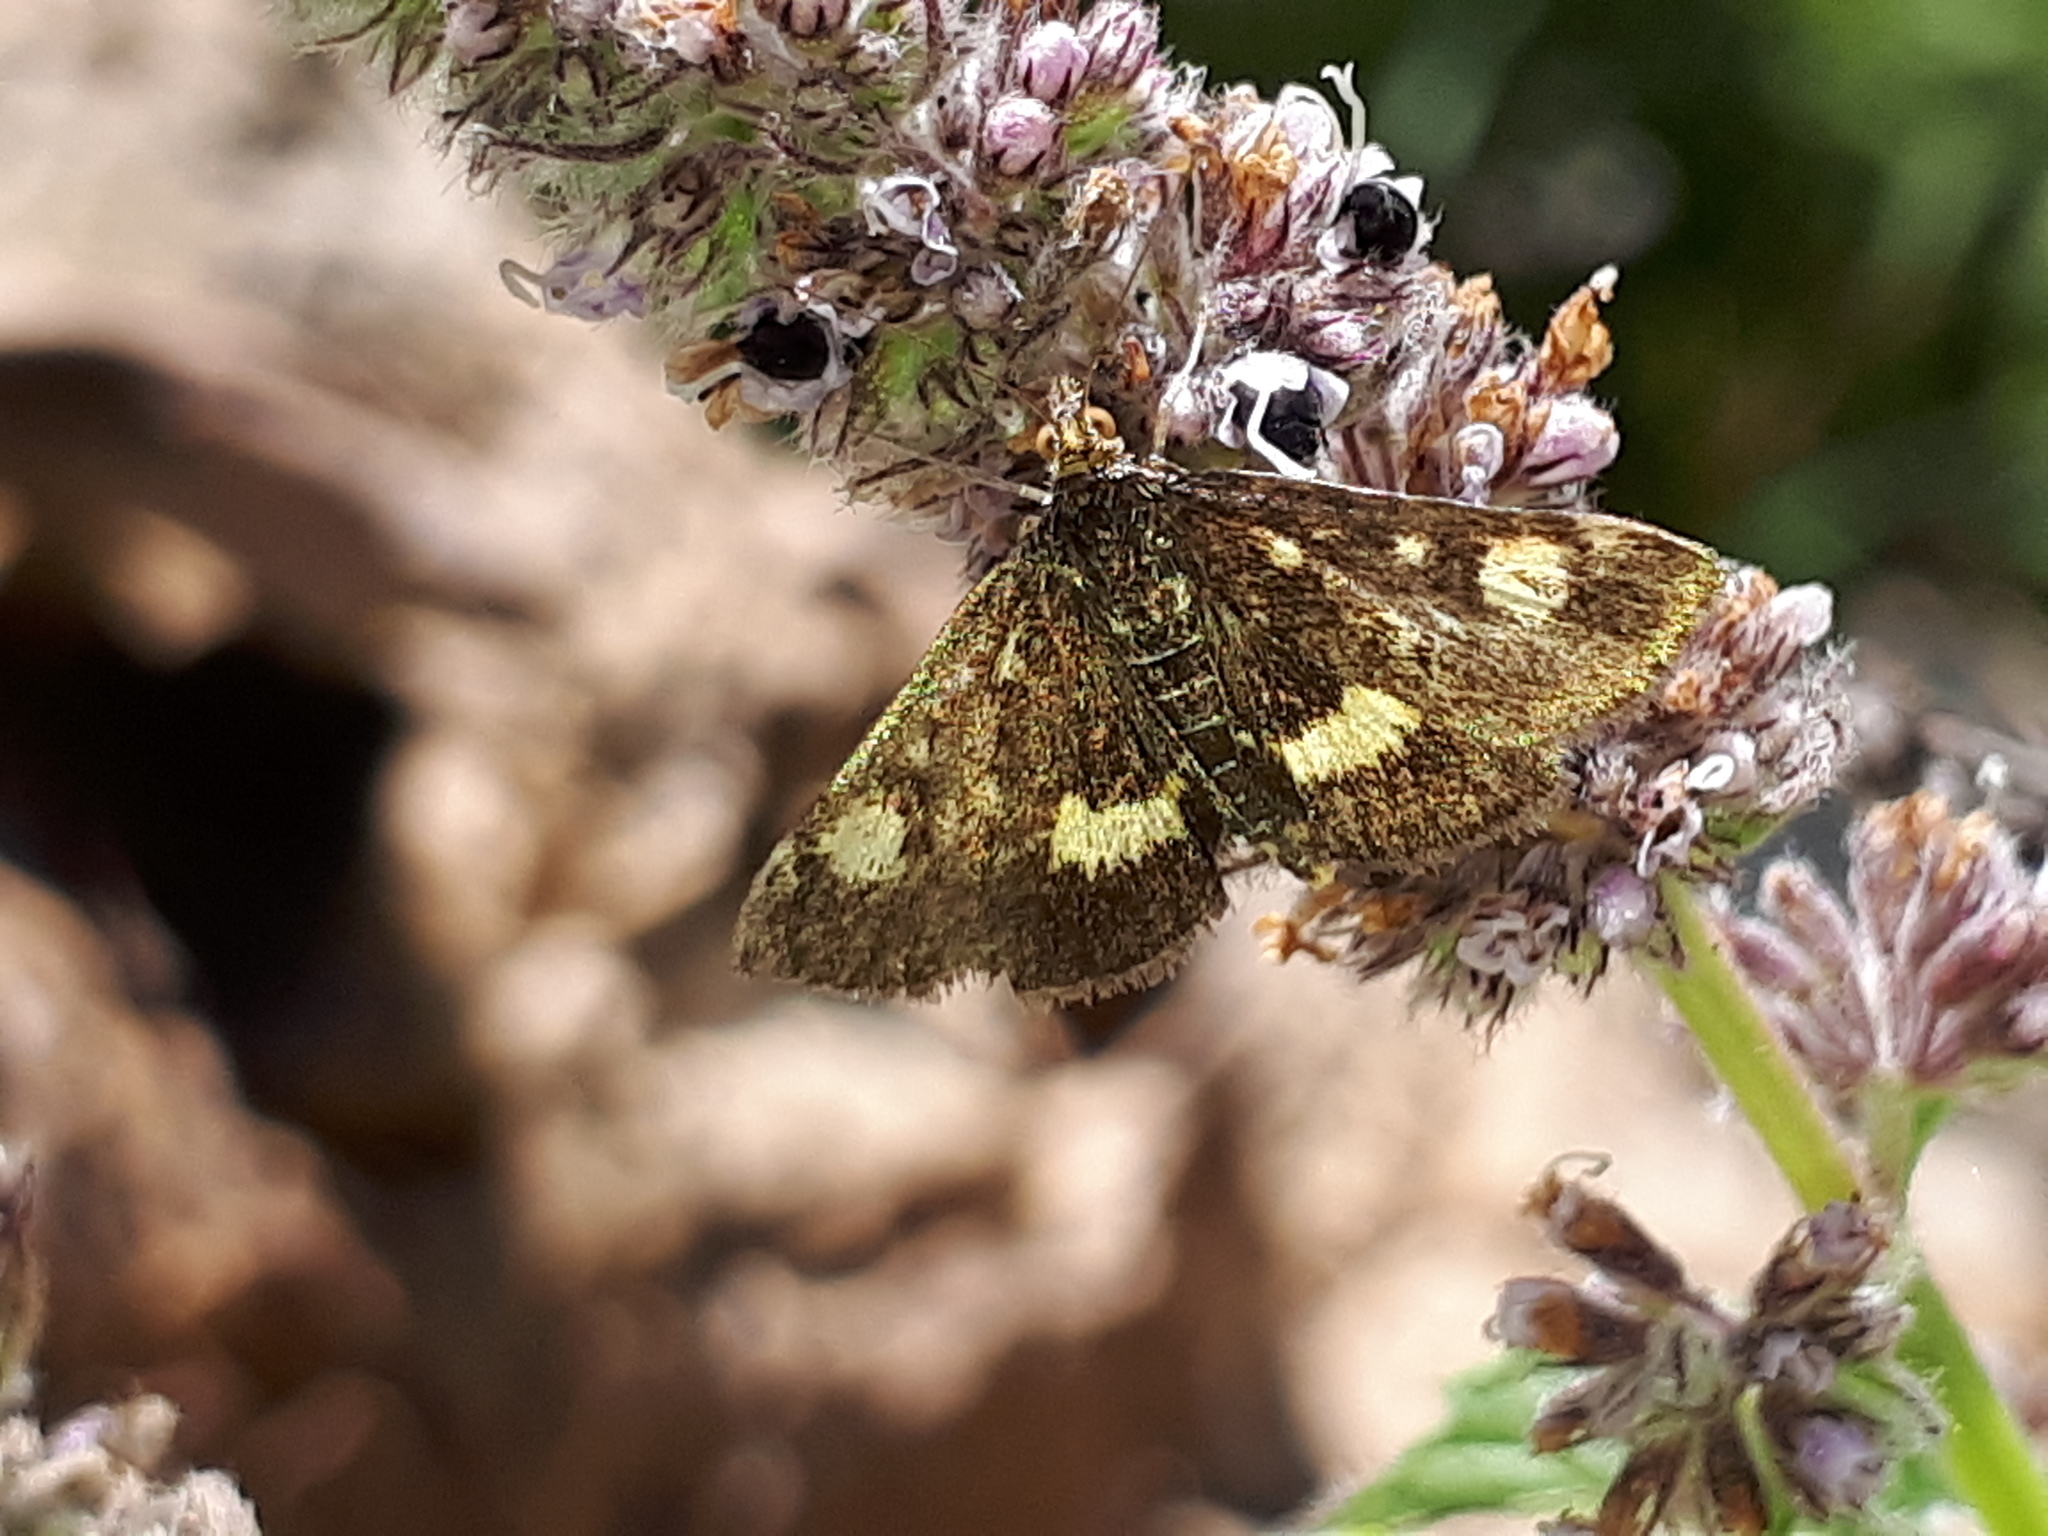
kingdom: Animalia
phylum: Arthropoda
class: Insecta
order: Lepidoptera
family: Crambidae
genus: Pyrausta
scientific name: Pyrausta aurata
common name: Small purple & gold
